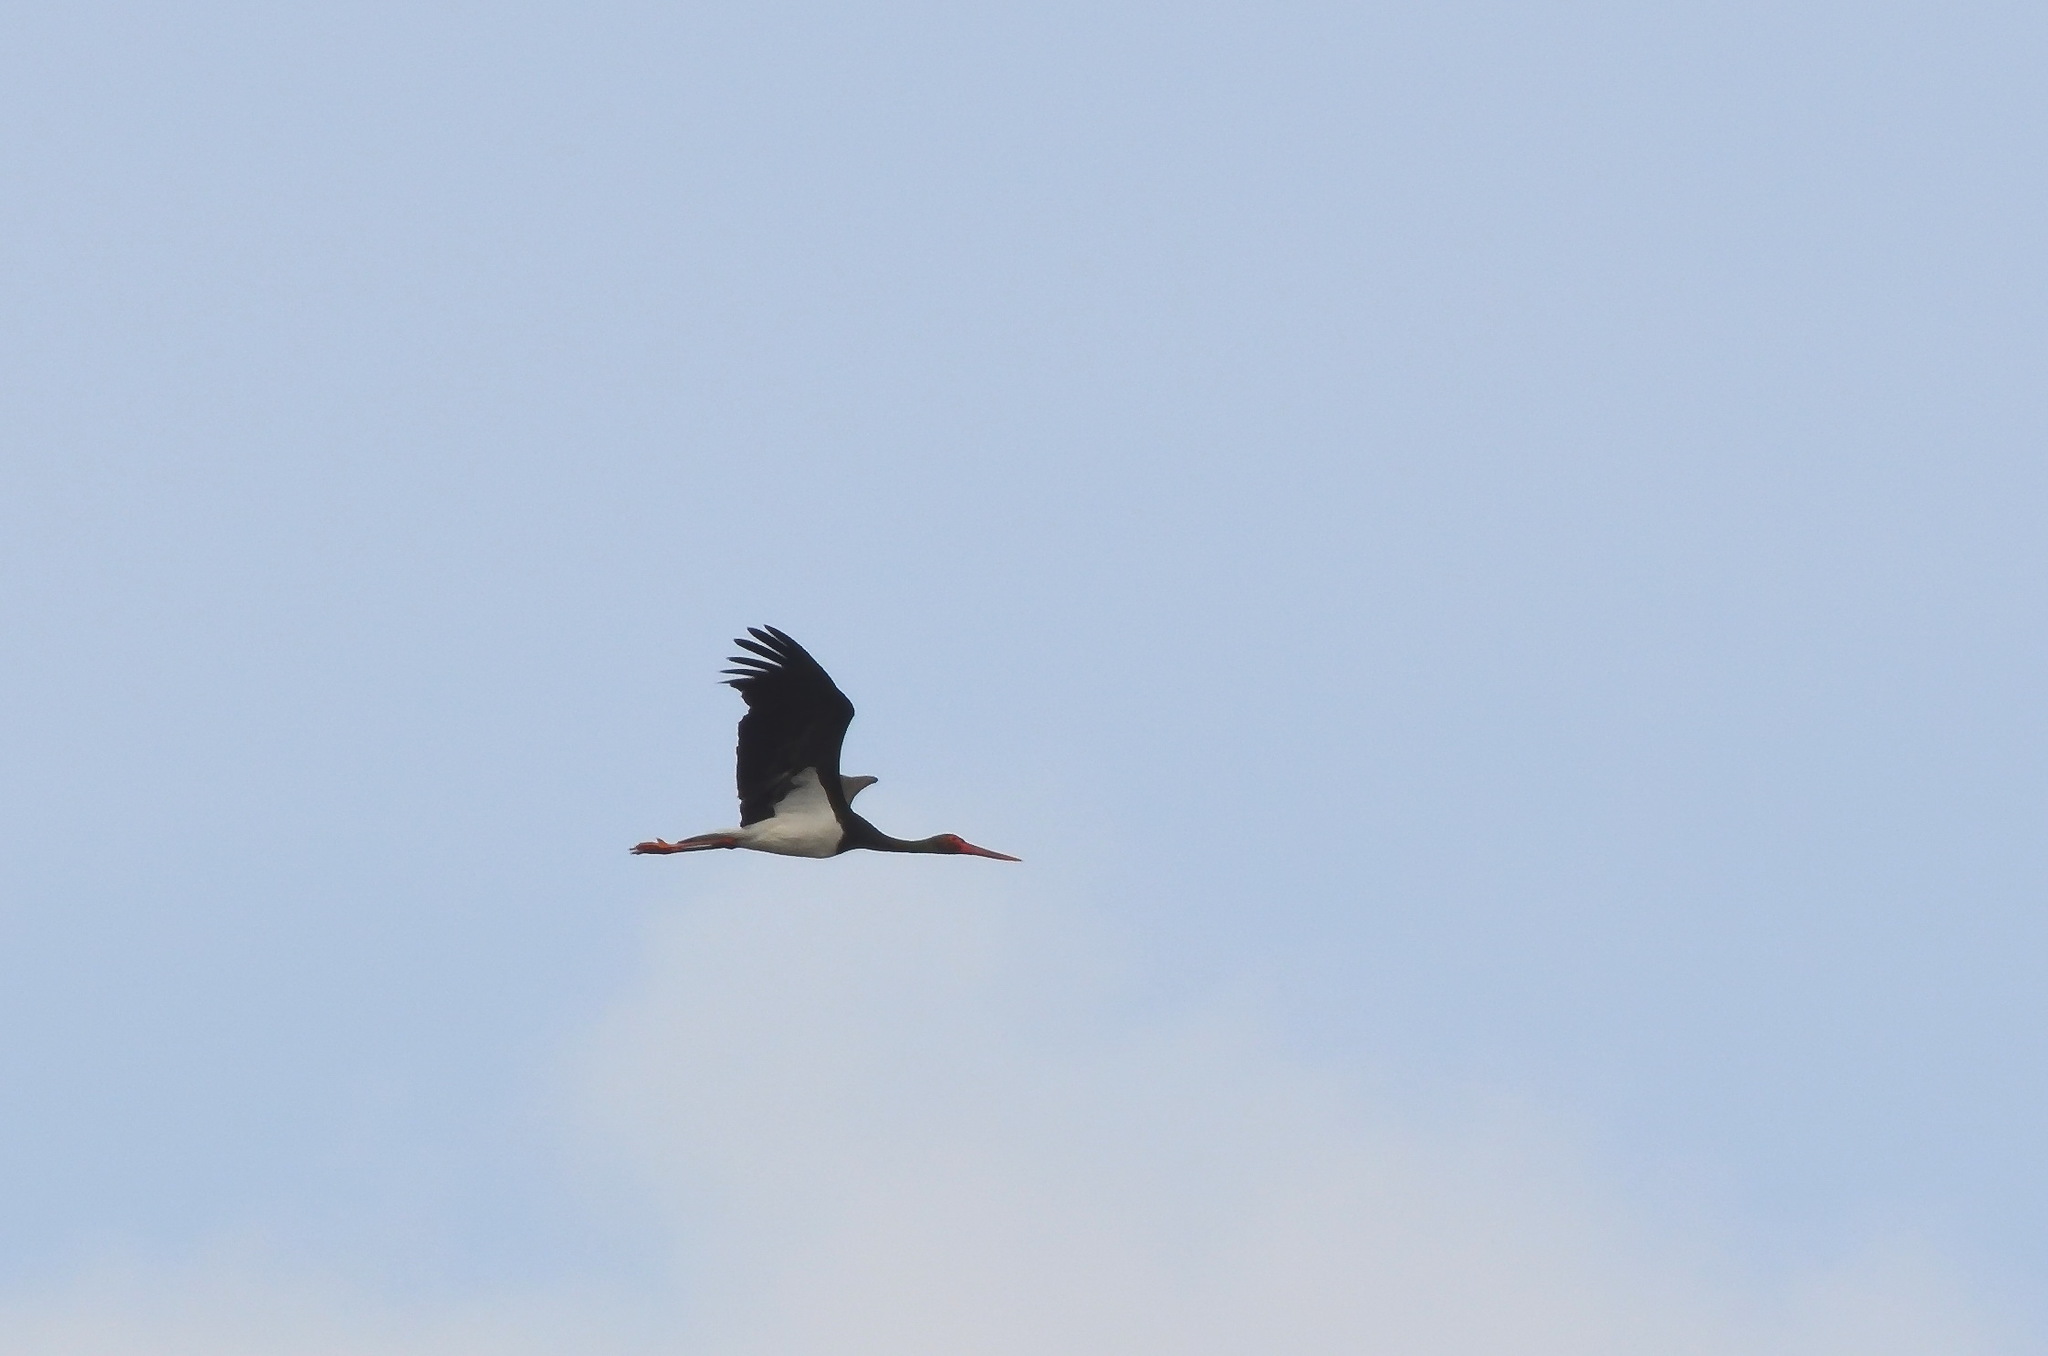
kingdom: Animalia
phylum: Chordata
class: Aves
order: Ciconiiformes
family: Ciconiidae
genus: Ciconia
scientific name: Ciconia nigra
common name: Black stork
